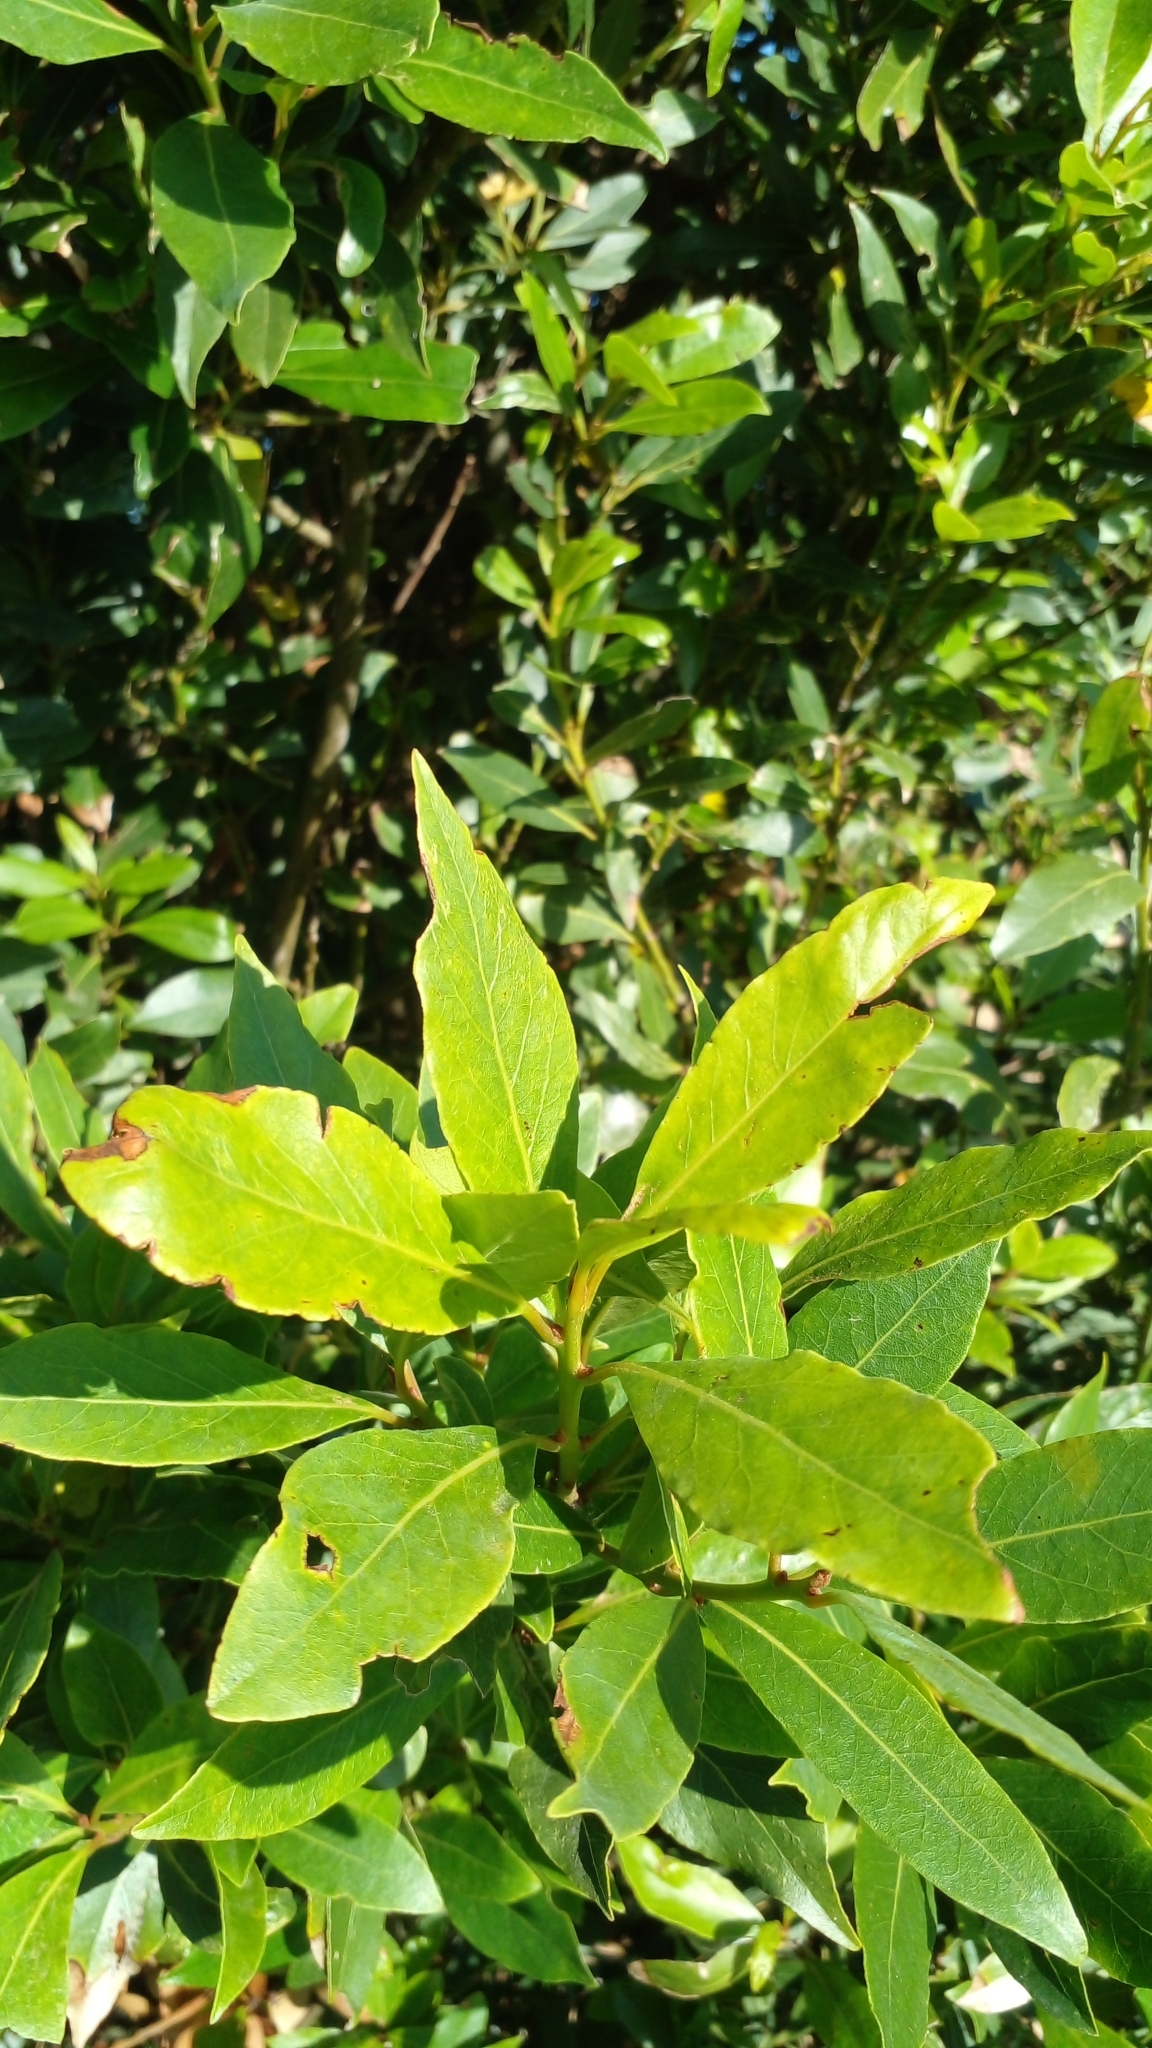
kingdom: Plantae
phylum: Tracheophyta
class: Magnoliopsida
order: Laurales
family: Lauraceae
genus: Laurus
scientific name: Laurus nobilis
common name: Bay
